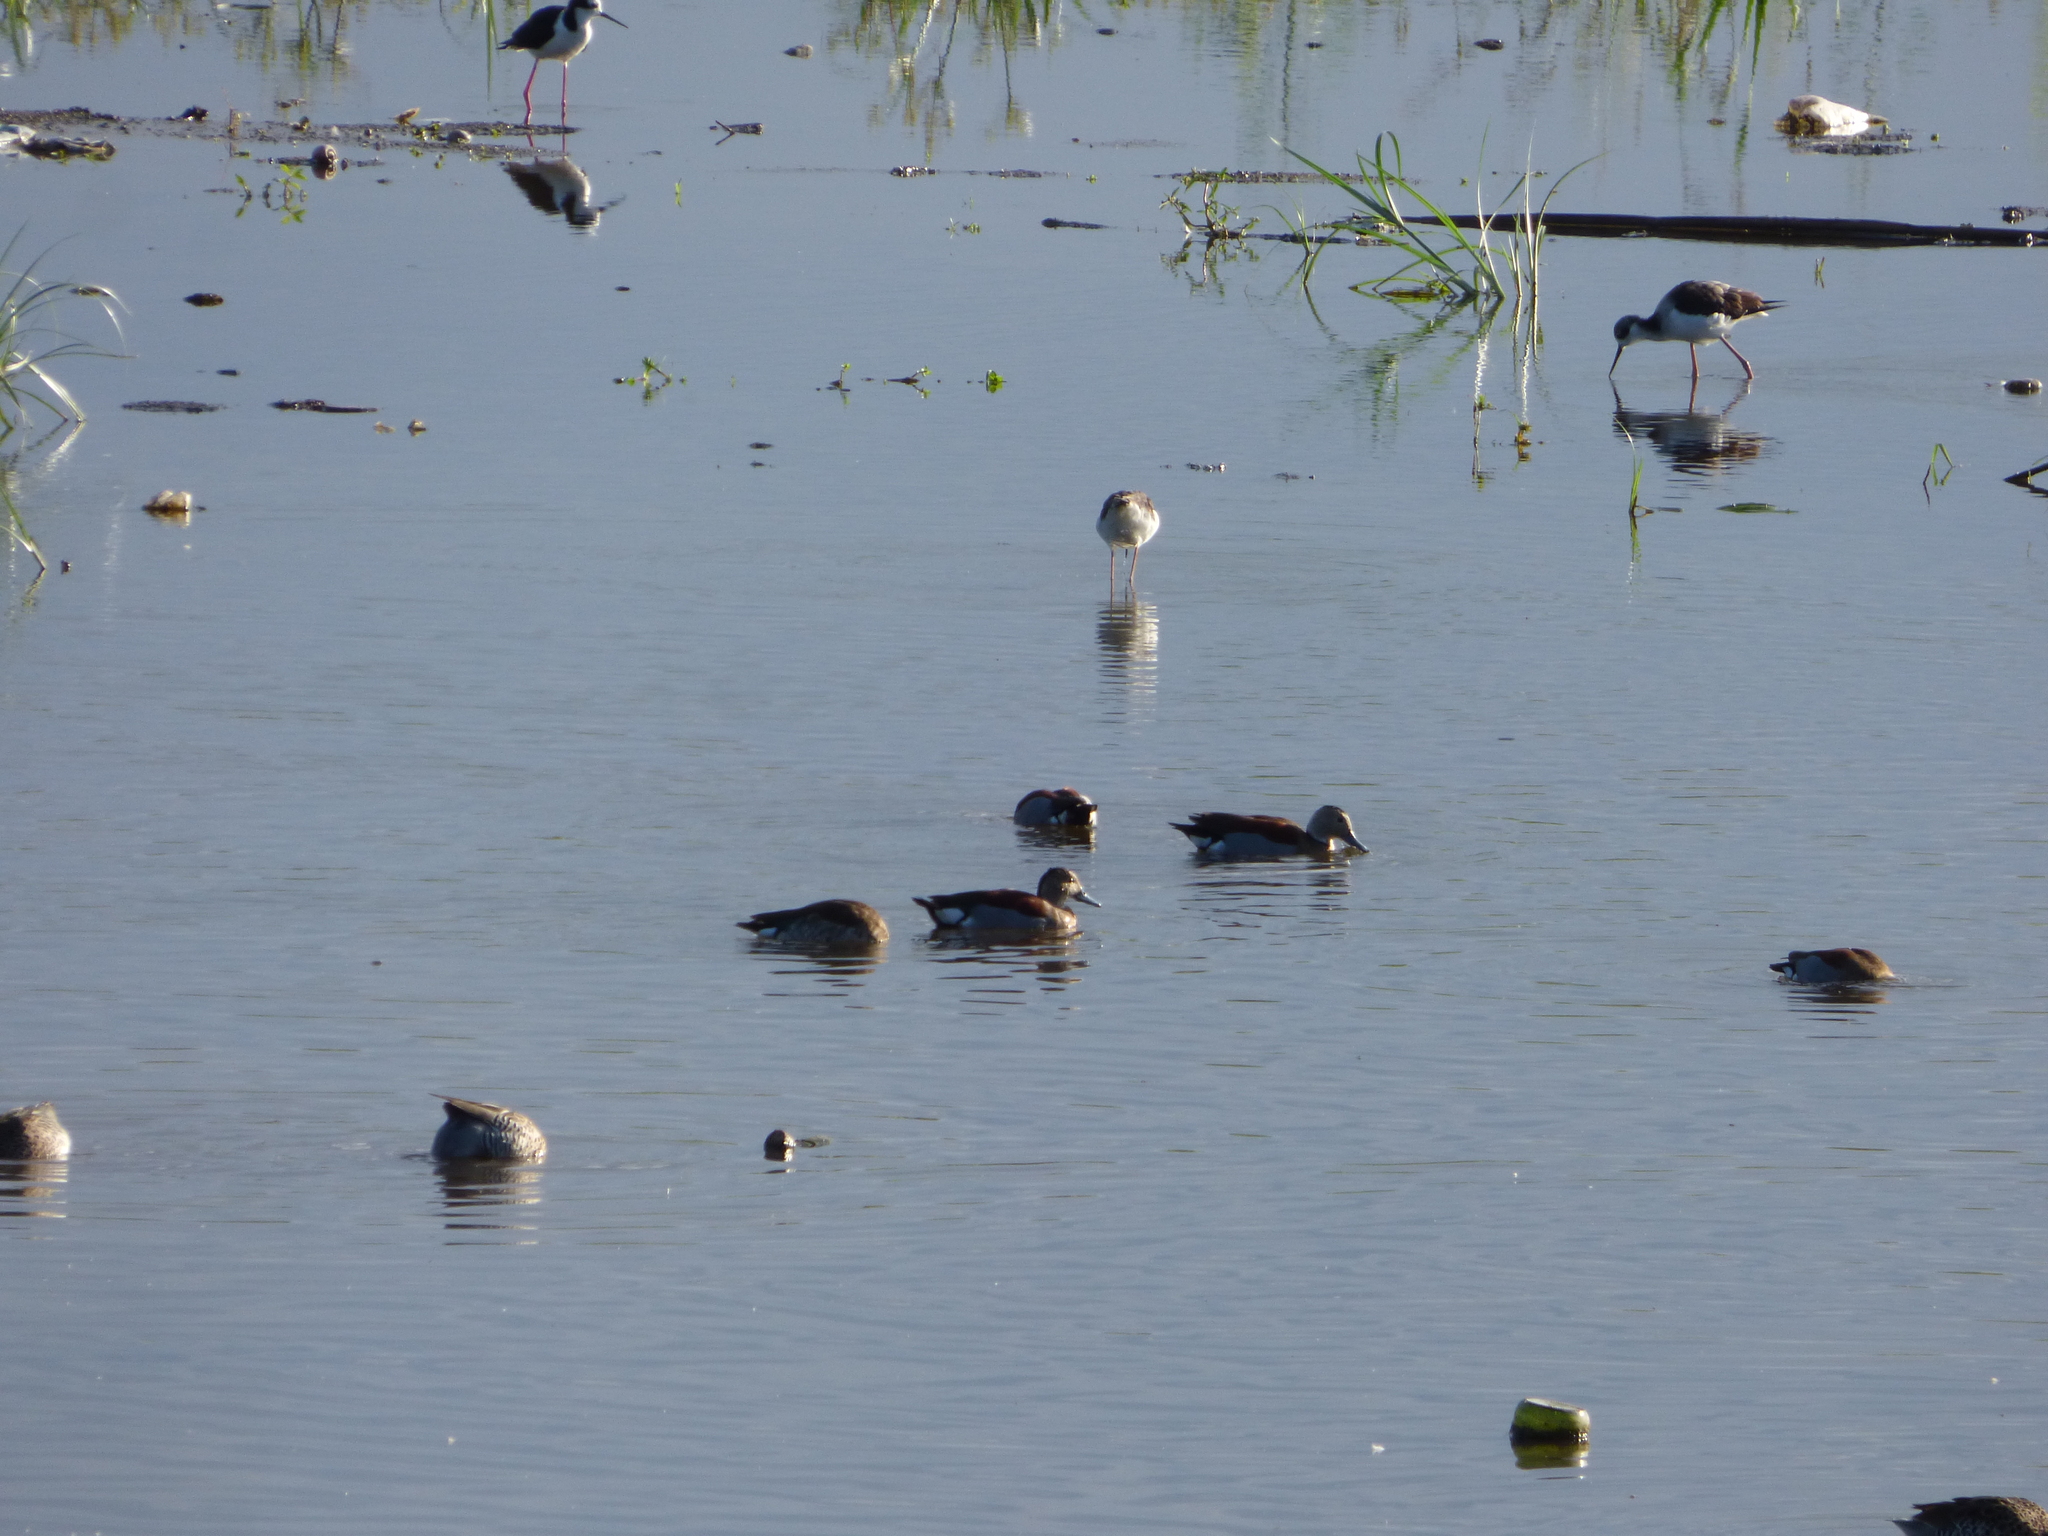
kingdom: Animalia
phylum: Chordata
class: Aves
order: Anseriformes
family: Anatidae
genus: Callonetta
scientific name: Callonetta leucophrys
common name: Ringed teal
